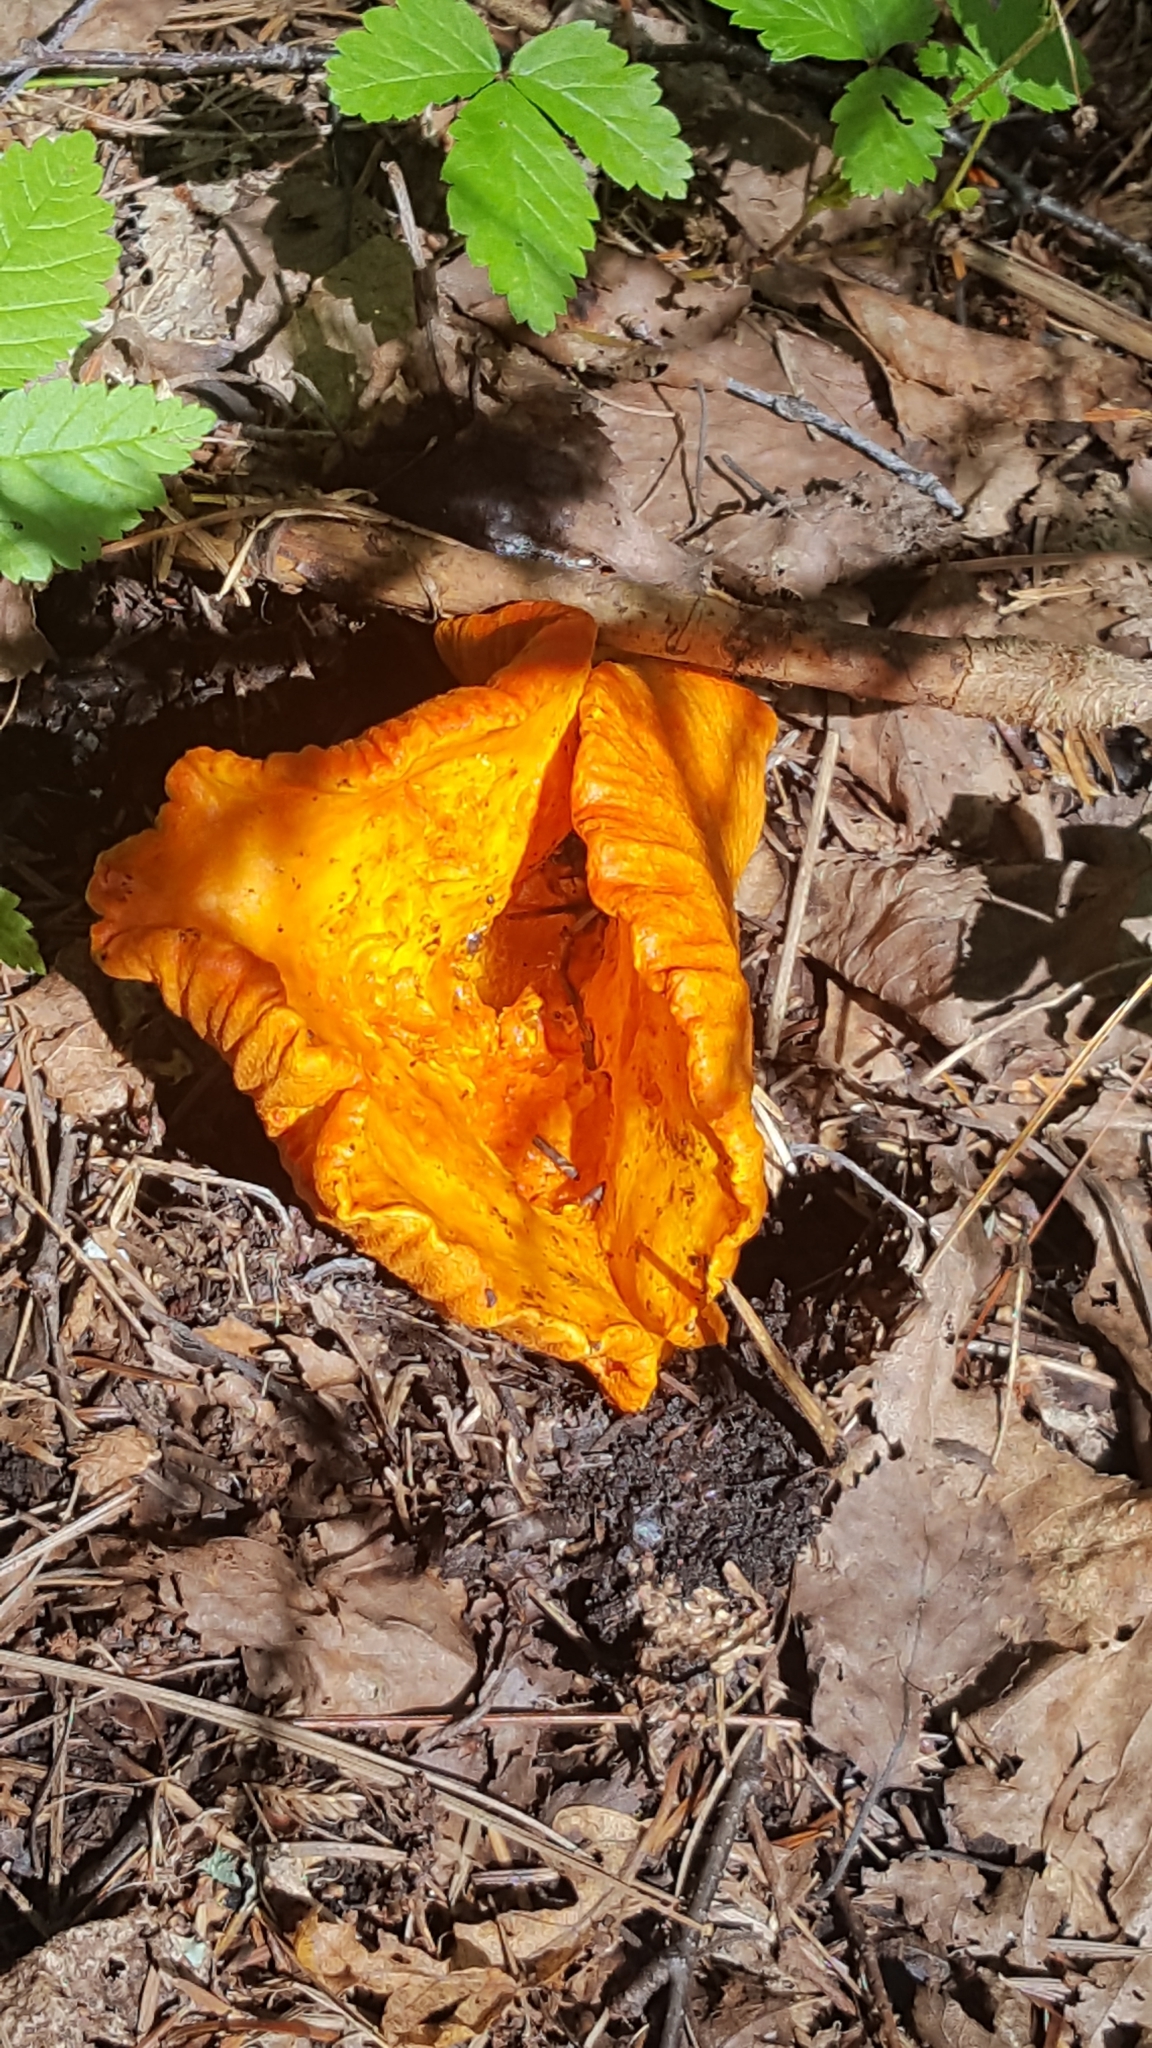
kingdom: Fungi
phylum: Ascomycota
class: Sordariomycetes
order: Hypocreales
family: Hypocreaceae
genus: Hypomyces
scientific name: Hypomyces lactifluorum
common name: Lobster mushroom
